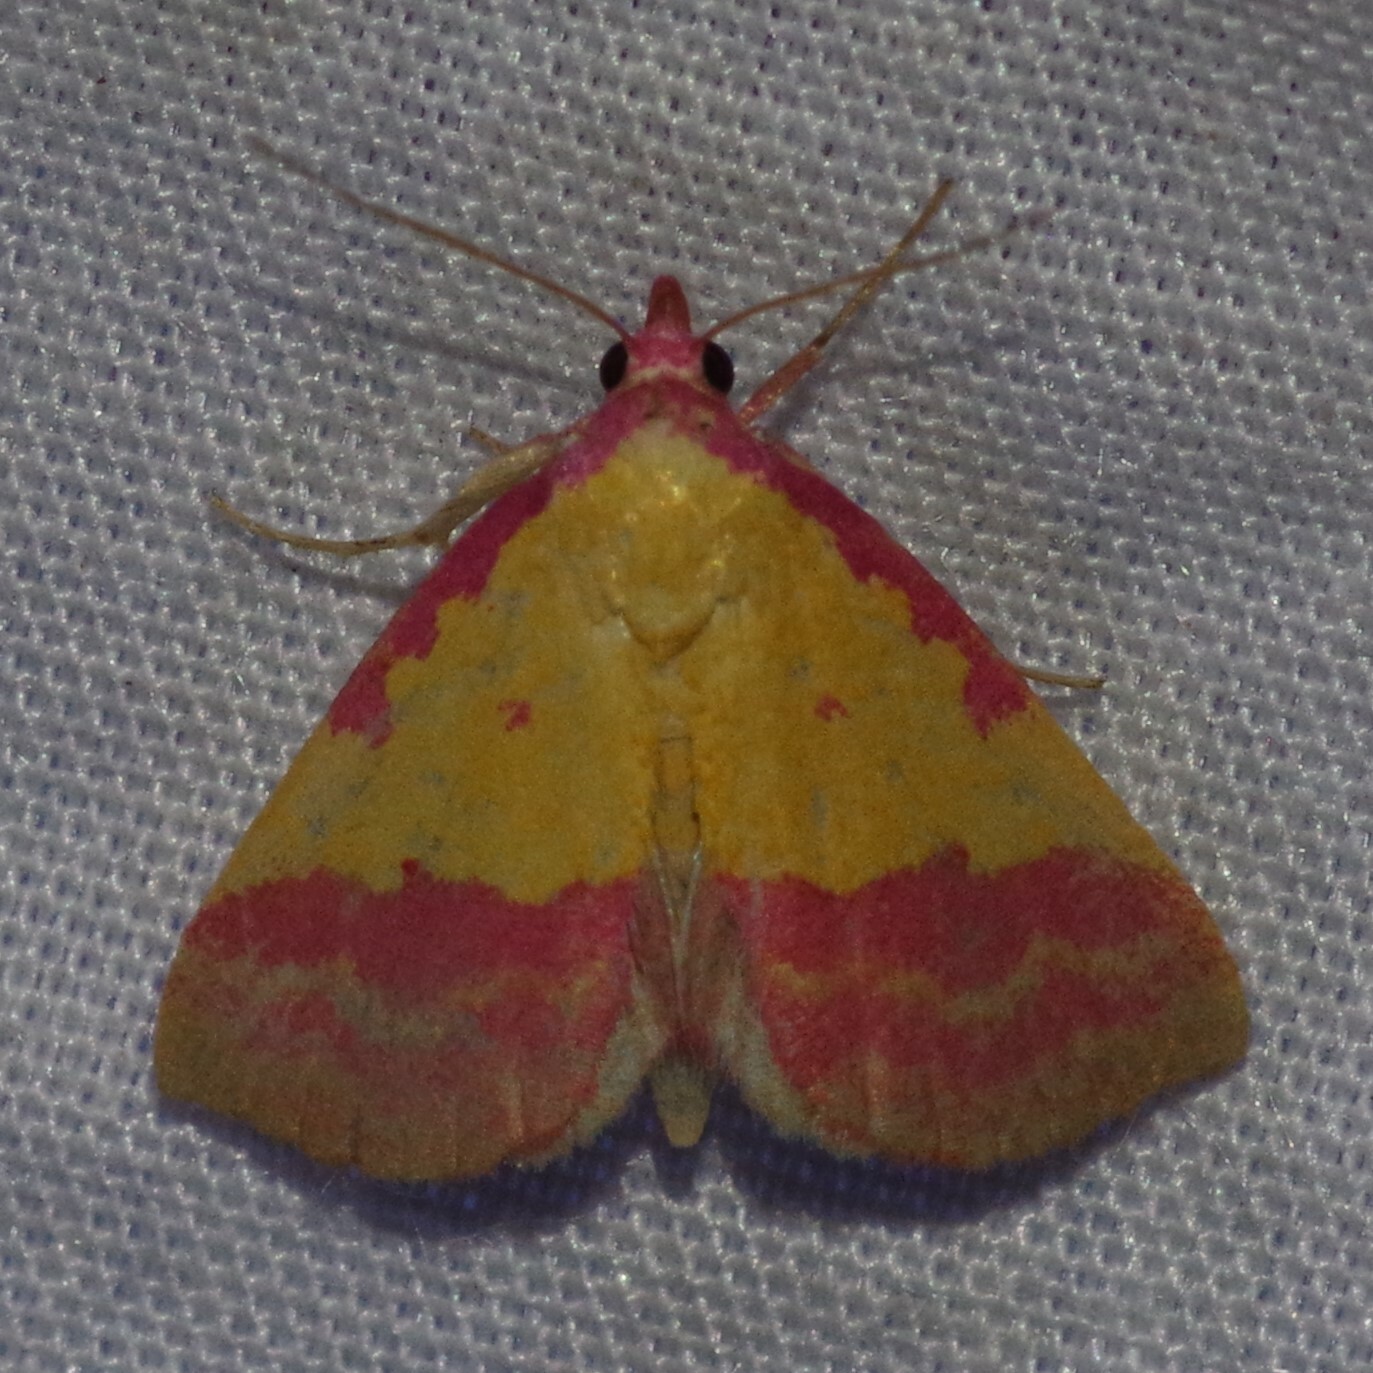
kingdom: Animalia
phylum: Arthropoda
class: Insecta
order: Lepidoptera
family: Erebidae
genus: Phytometra
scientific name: Phytometra rhodarialis
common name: Pink-bordered yellow
